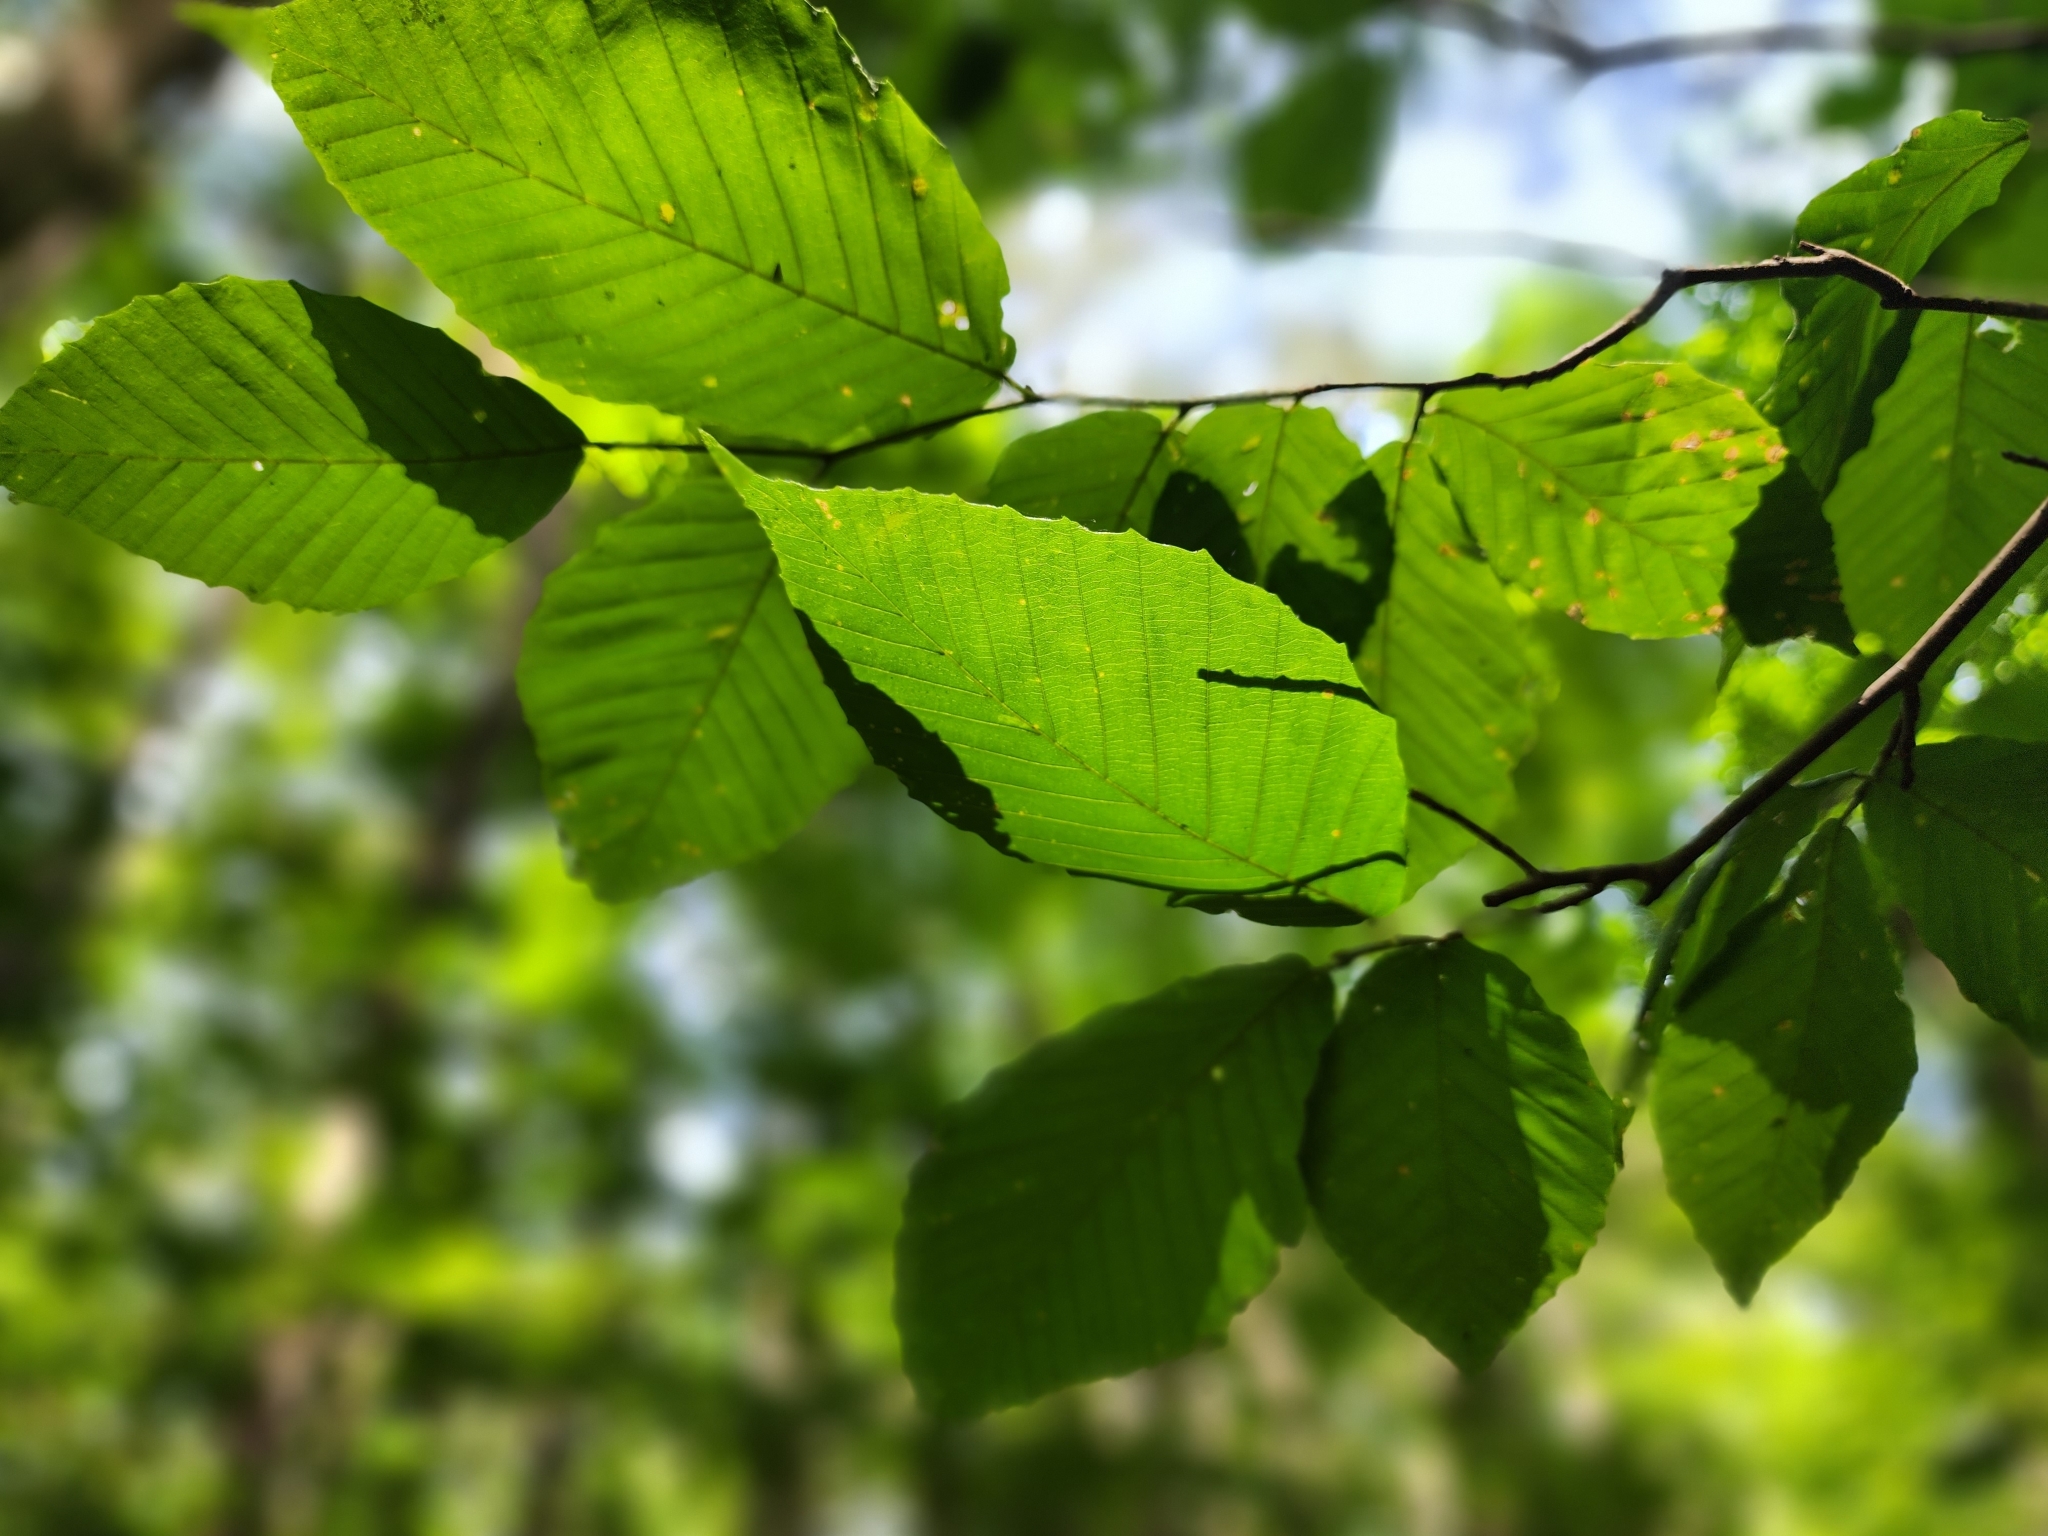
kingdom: Plantae
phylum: Tracheophyta
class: Magnoliopsida
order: Fagales
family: Fagaceae
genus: Fagus
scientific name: Fagus grandifolia
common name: American beech
